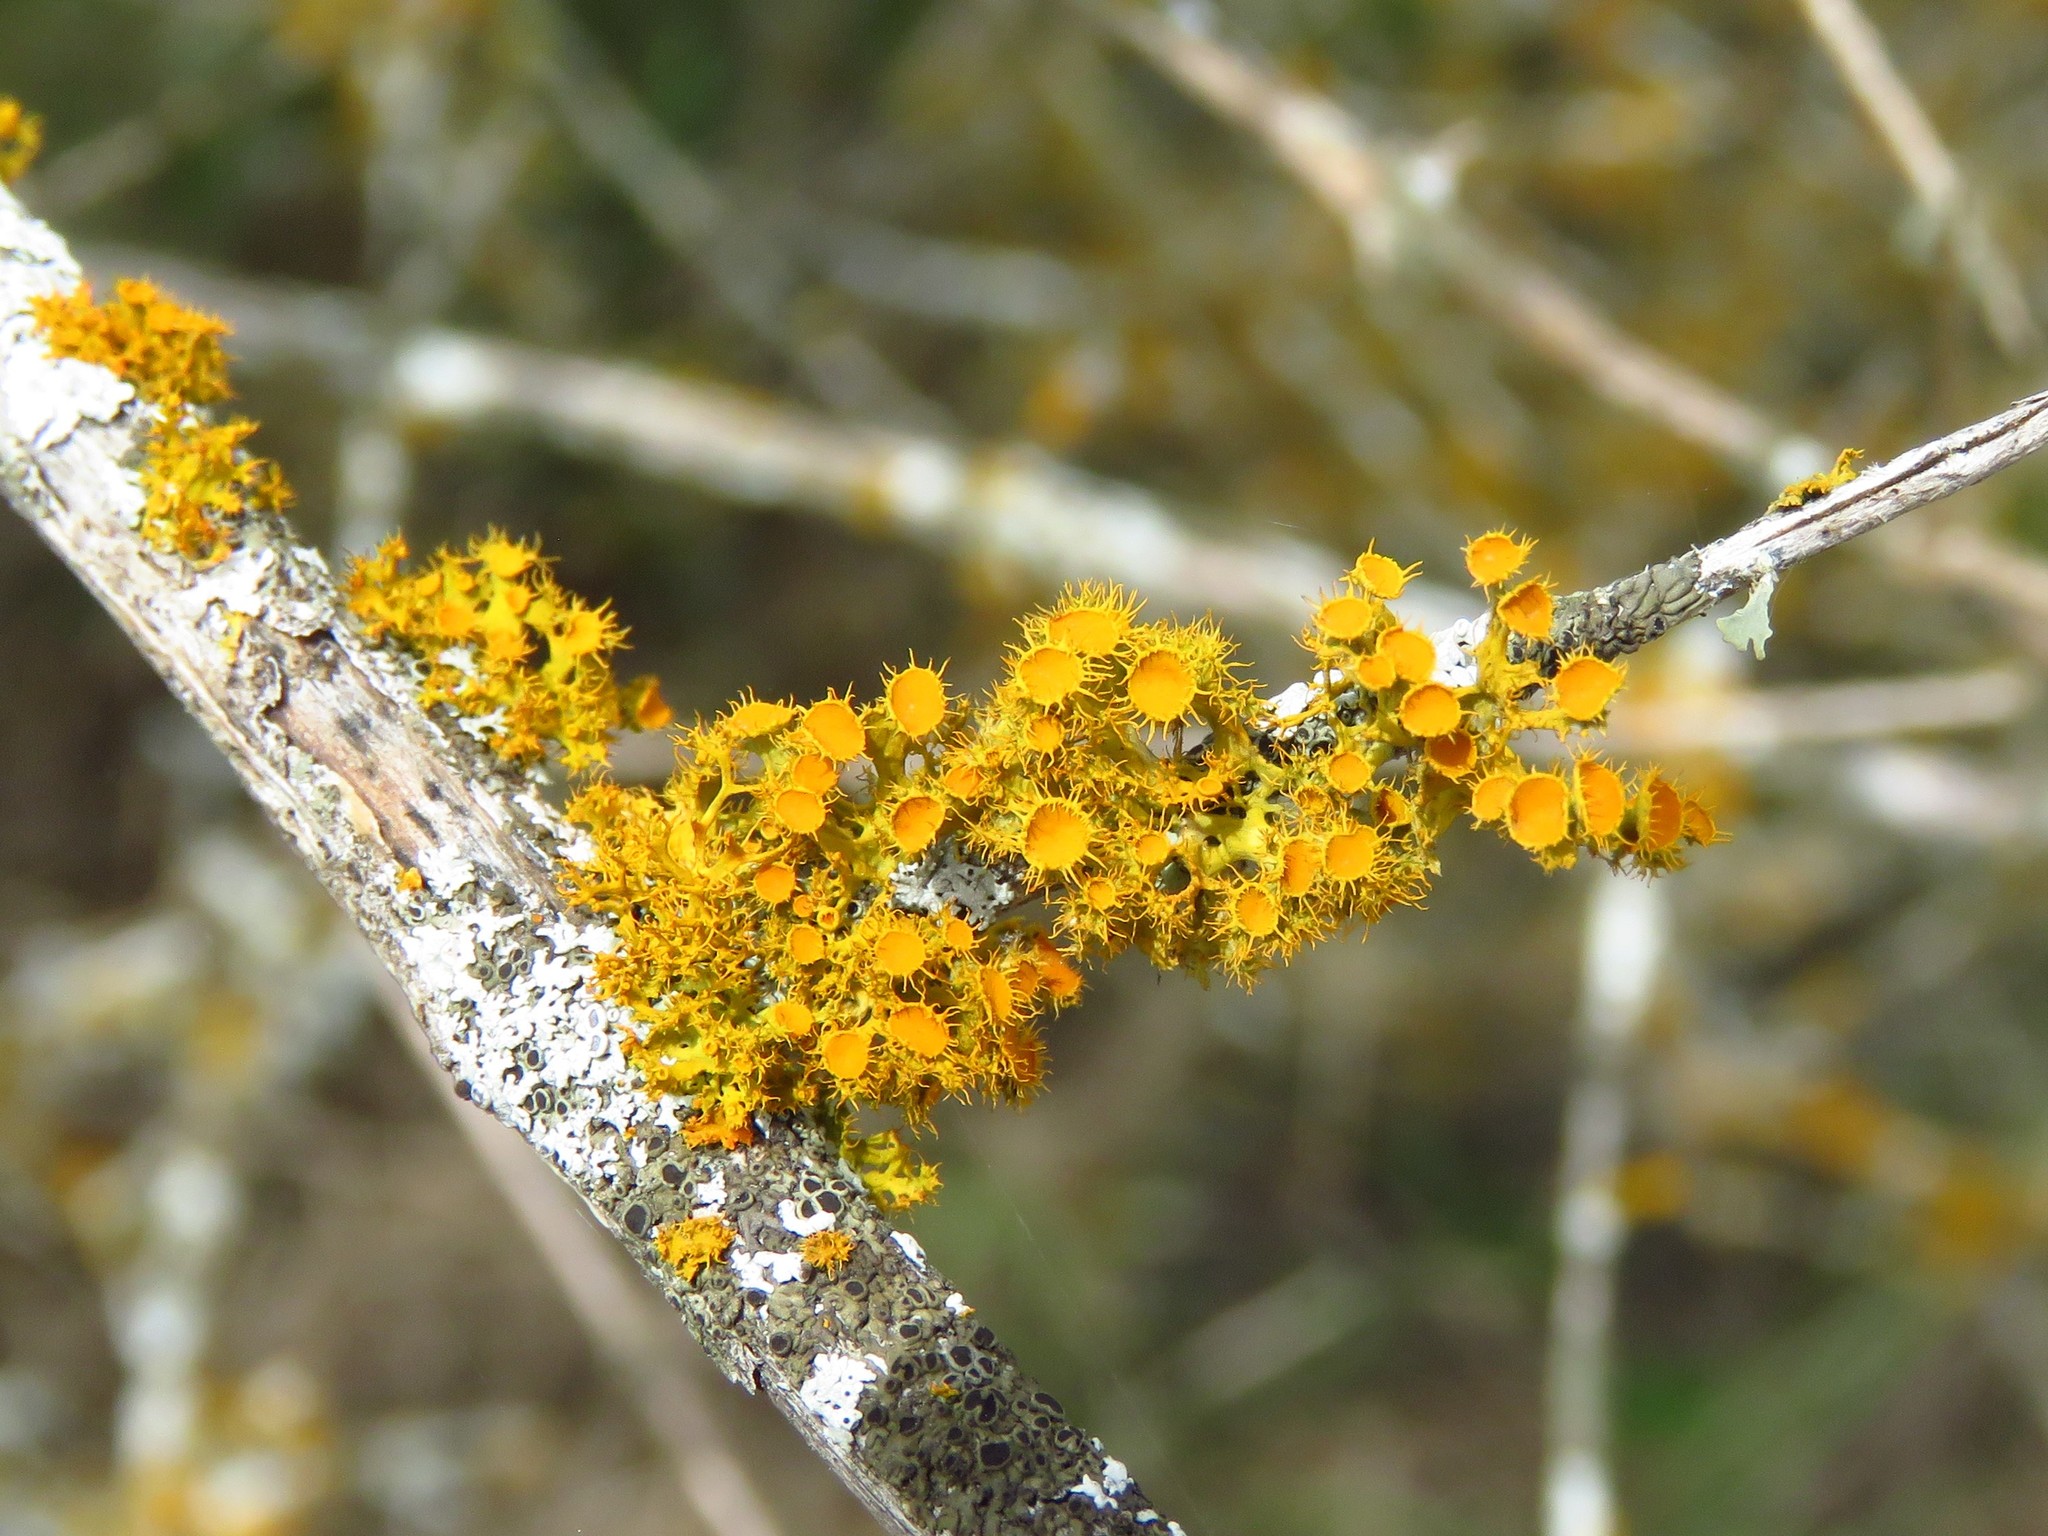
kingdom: Fungi
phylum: Ascomycota
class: Lecanoromycetes
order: Teloschistales
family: Teloschistaceae
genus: Niorma
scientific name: Niorma chrysophthalma
